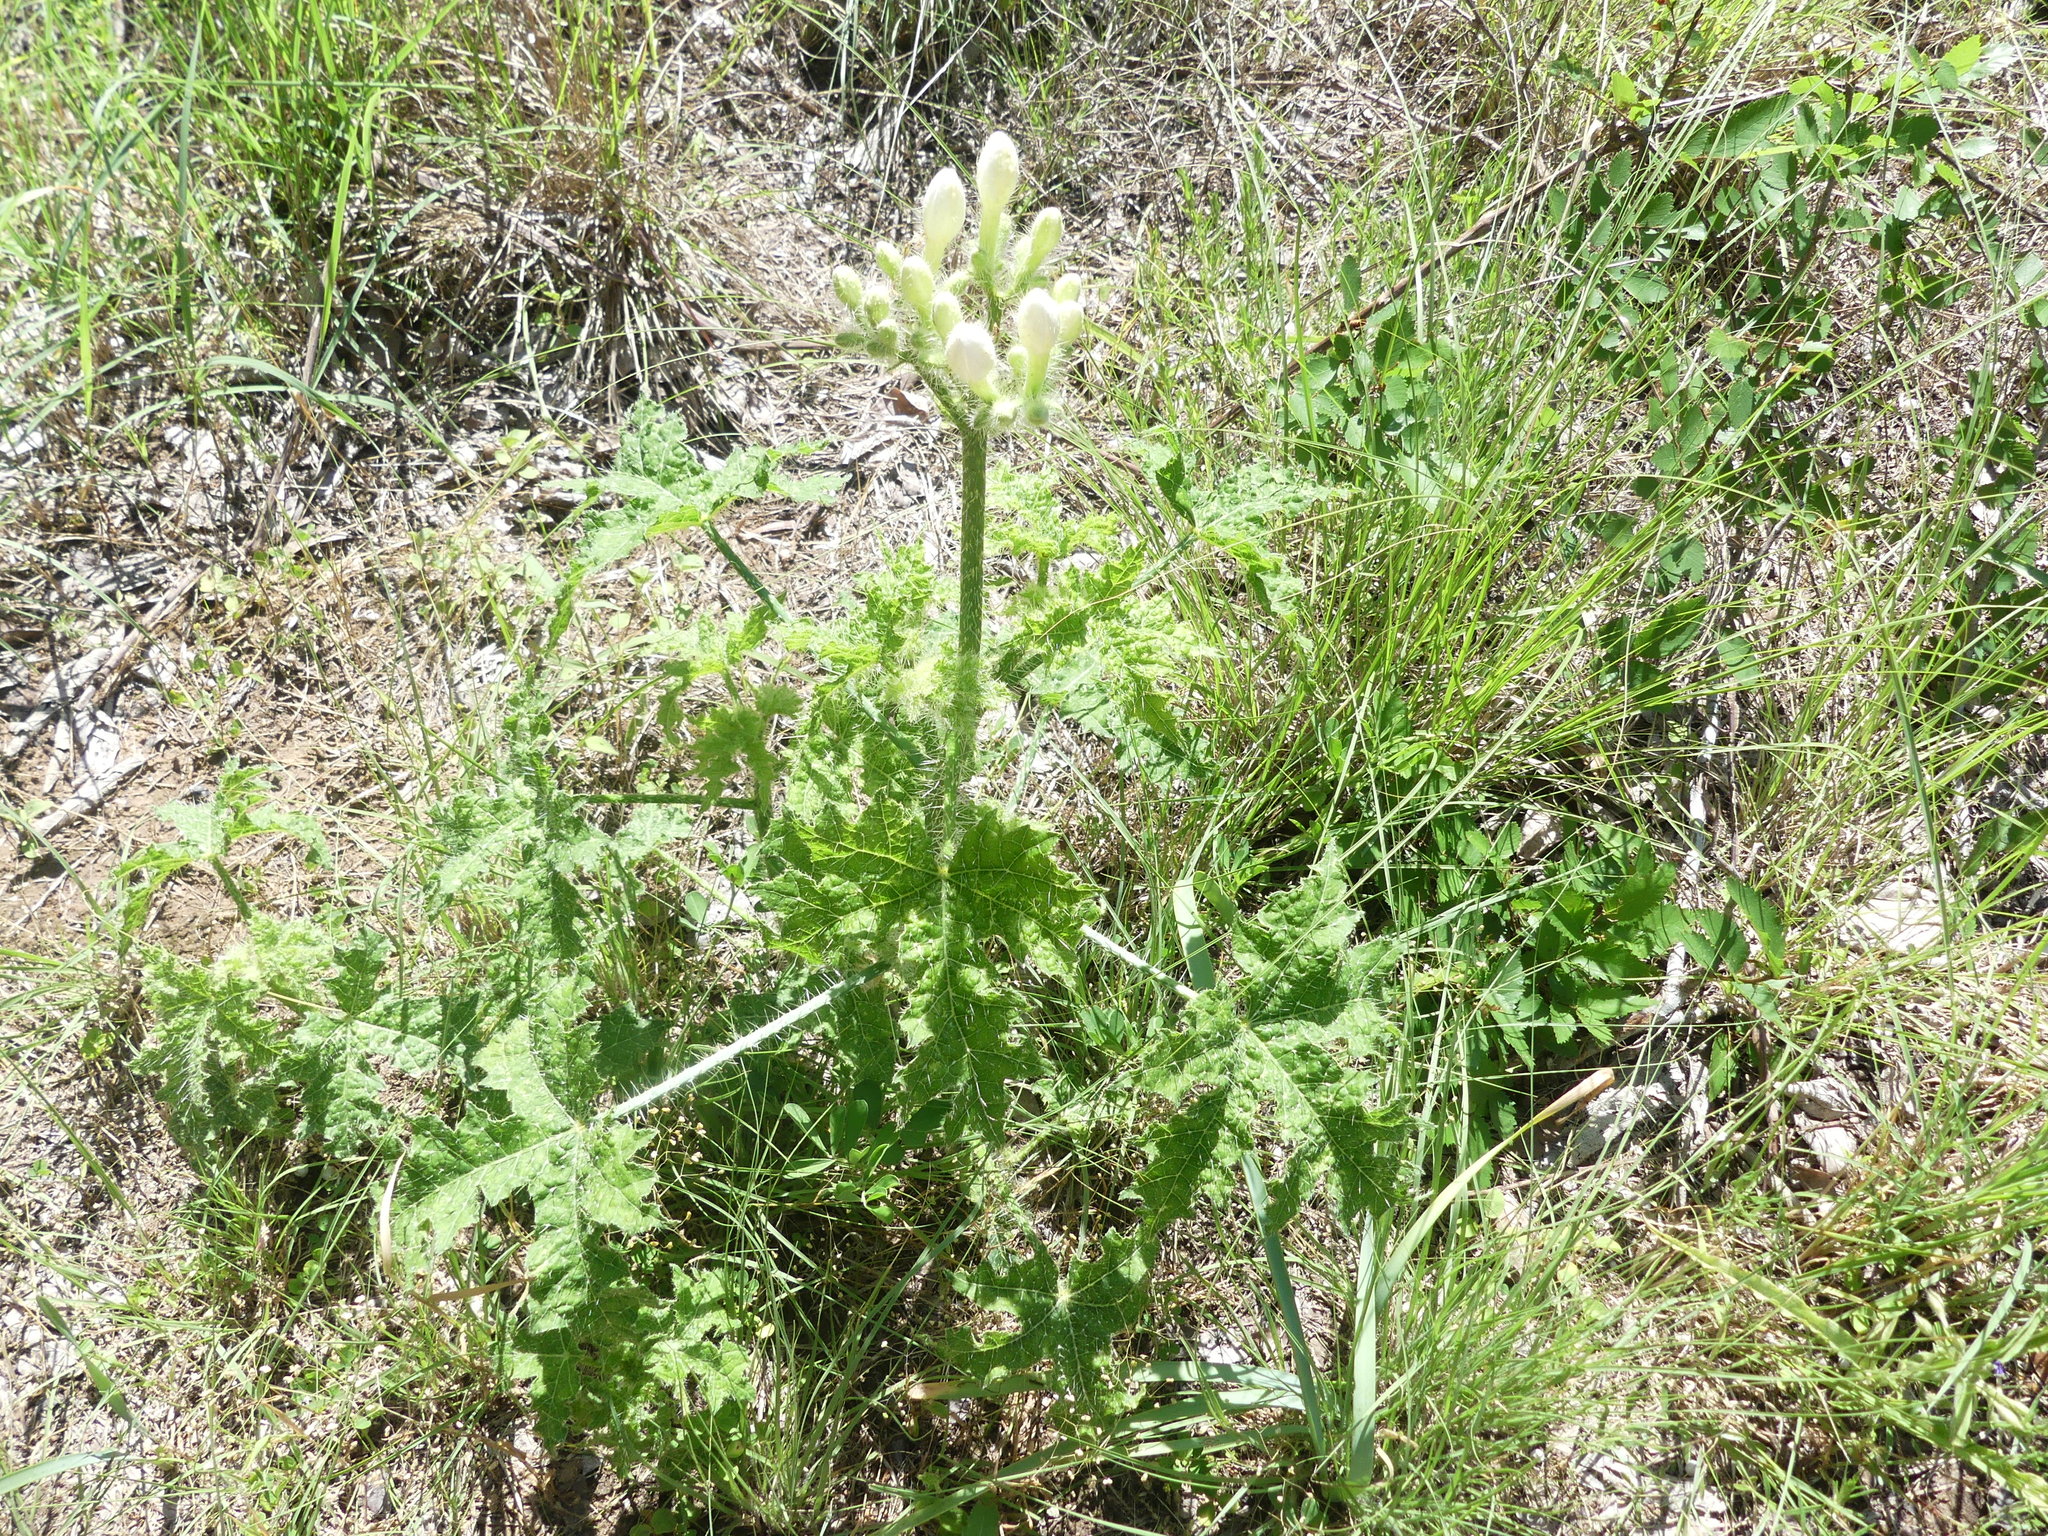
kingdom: Plantae
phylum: Tracheophyta
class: Magnoliopsida
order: Malpighiales
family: Euphorbiaceae
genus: Cnidoscolus
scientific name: Cnidoscolus texanus
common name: Texas bull-nettle
